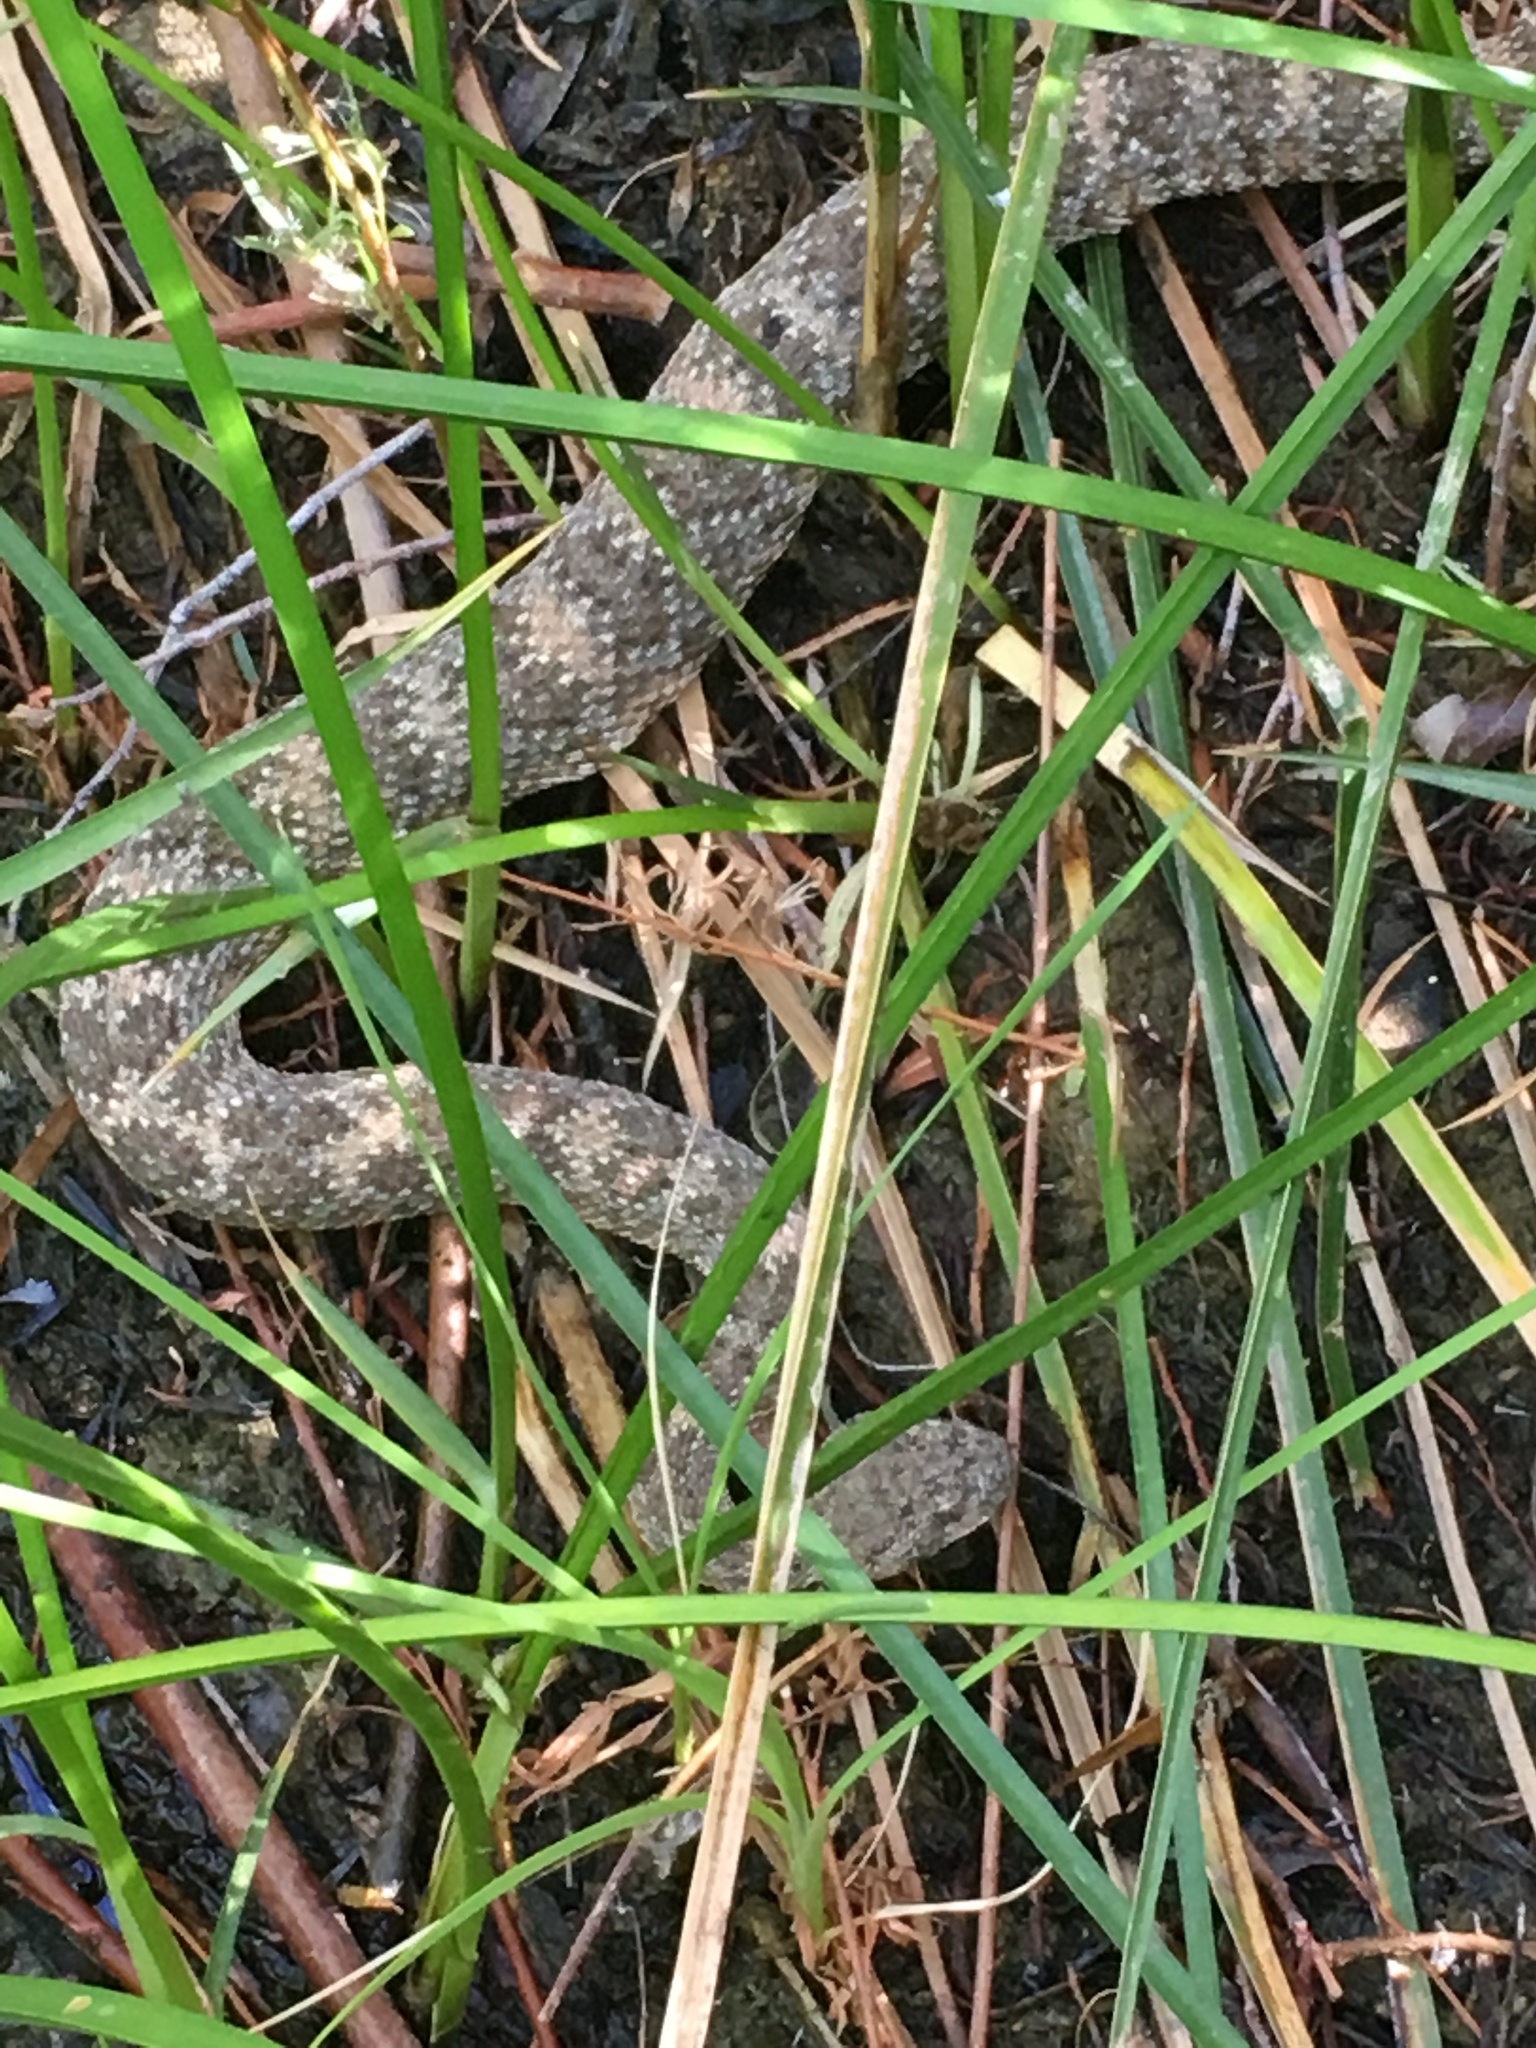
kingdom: Animalia
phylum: Chordata
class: Squamata
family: Viperidae
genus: Crotalus
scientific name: Crotalus pyrrhus
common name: Southwestern speckled rattlesnake
